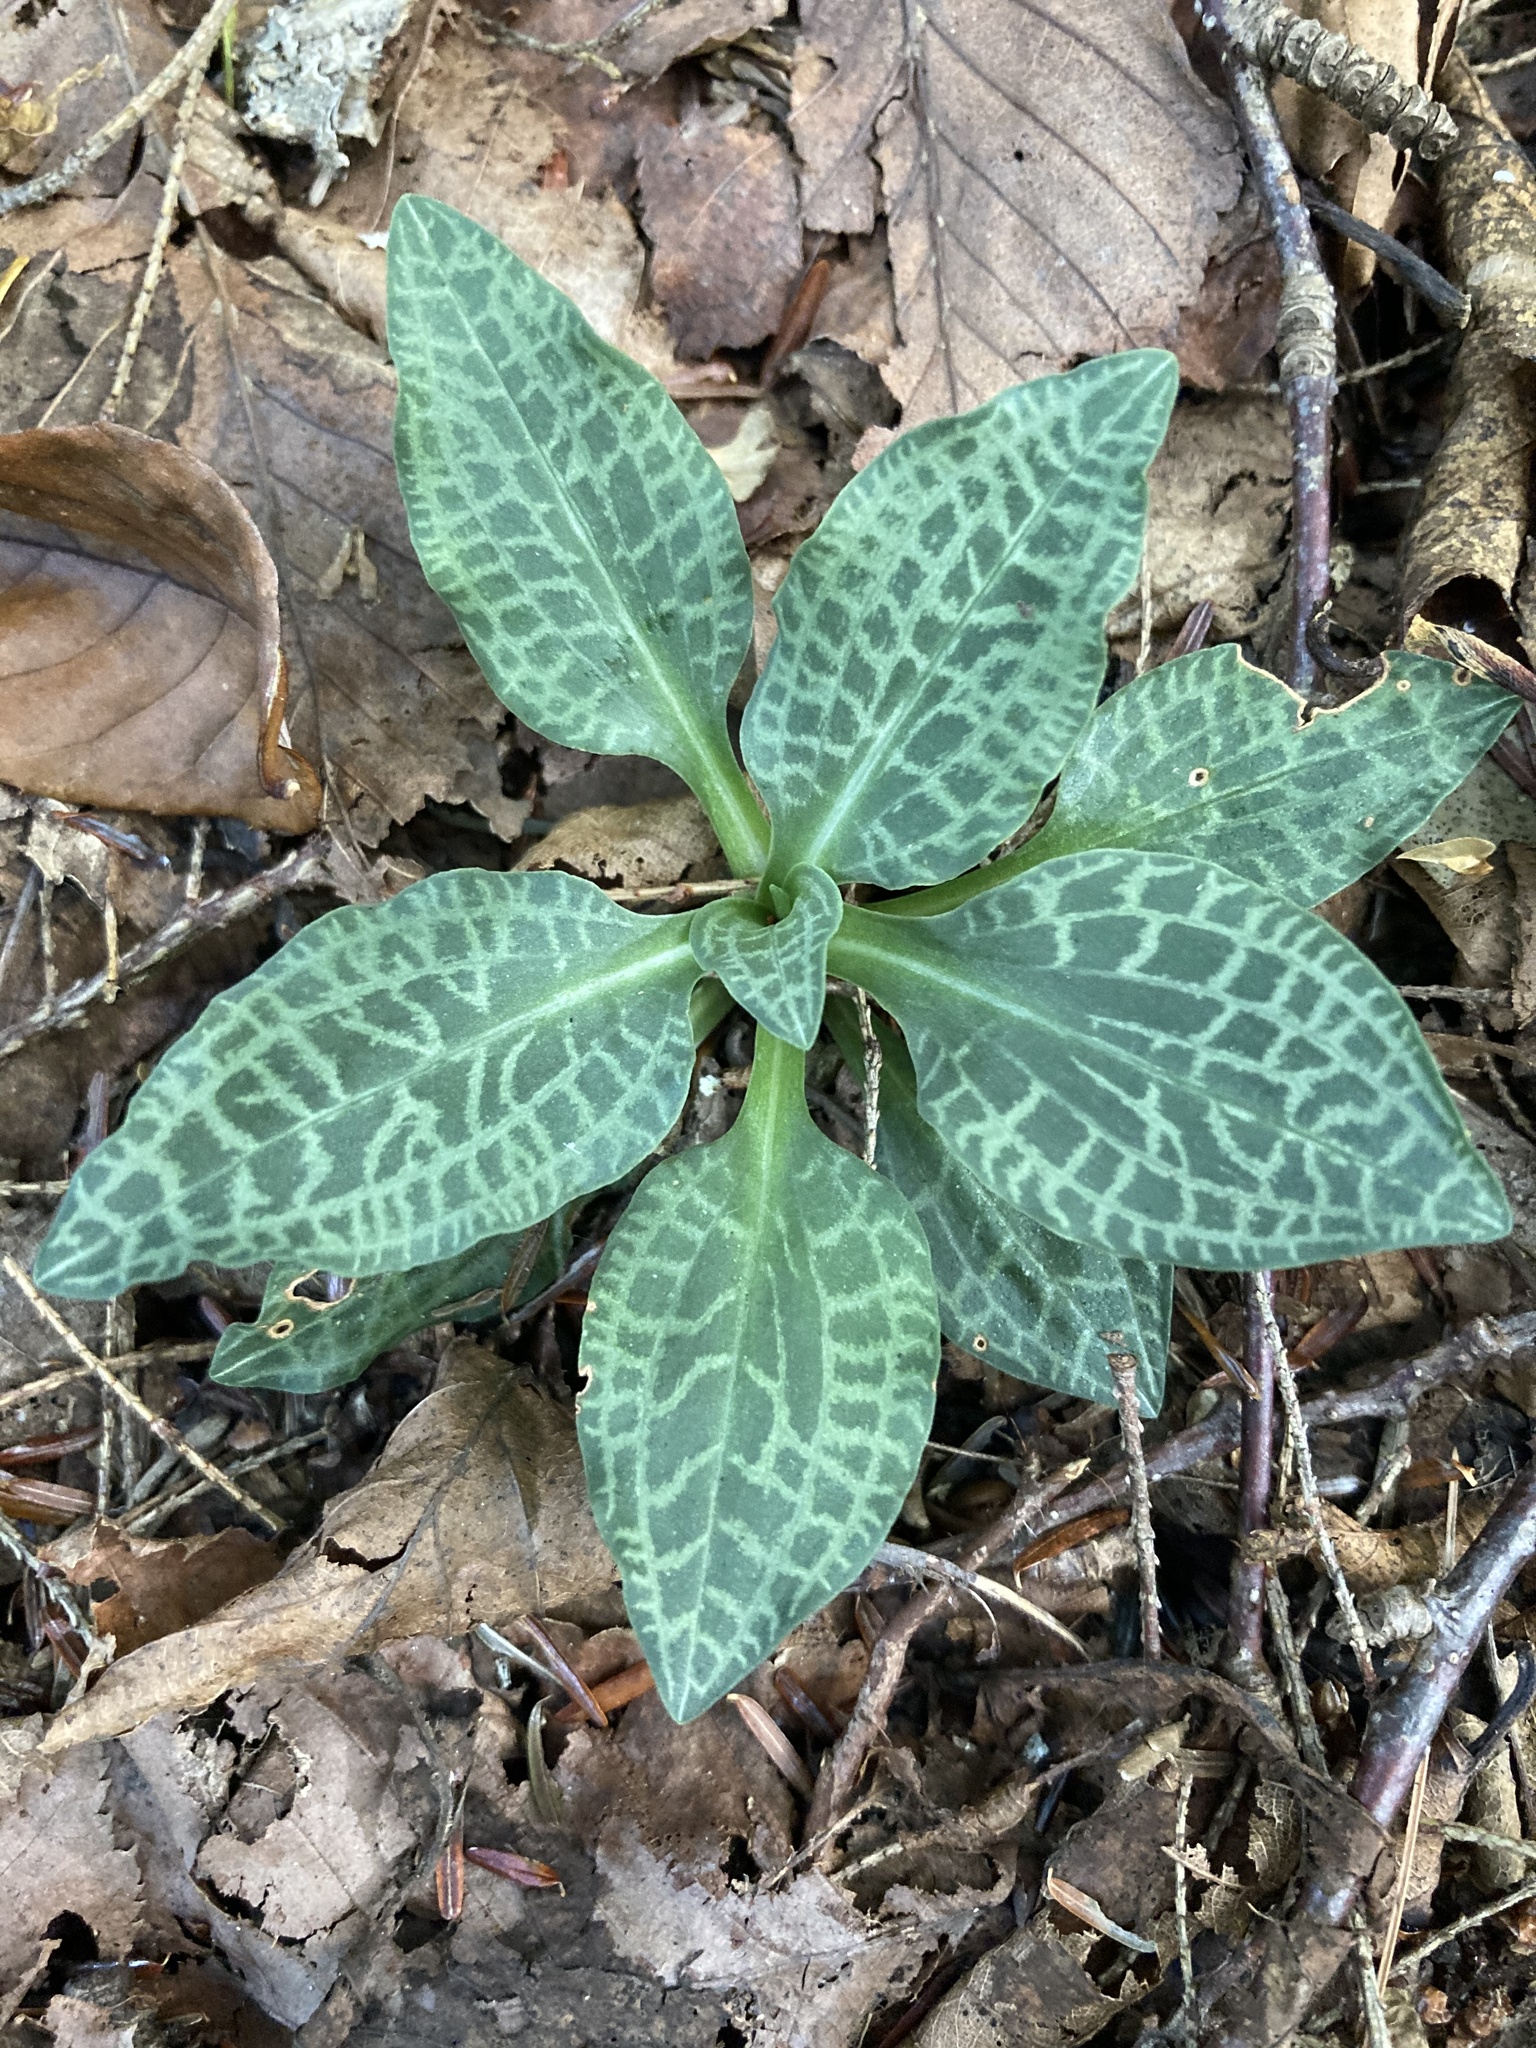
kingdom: Plantae
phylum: Tracheophyta
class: Liliopsida
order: Asparagales
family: Orchidaceae
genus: Goodyera
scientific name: Goodyera tesselata
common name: Checkered rattlesnake-plantain
